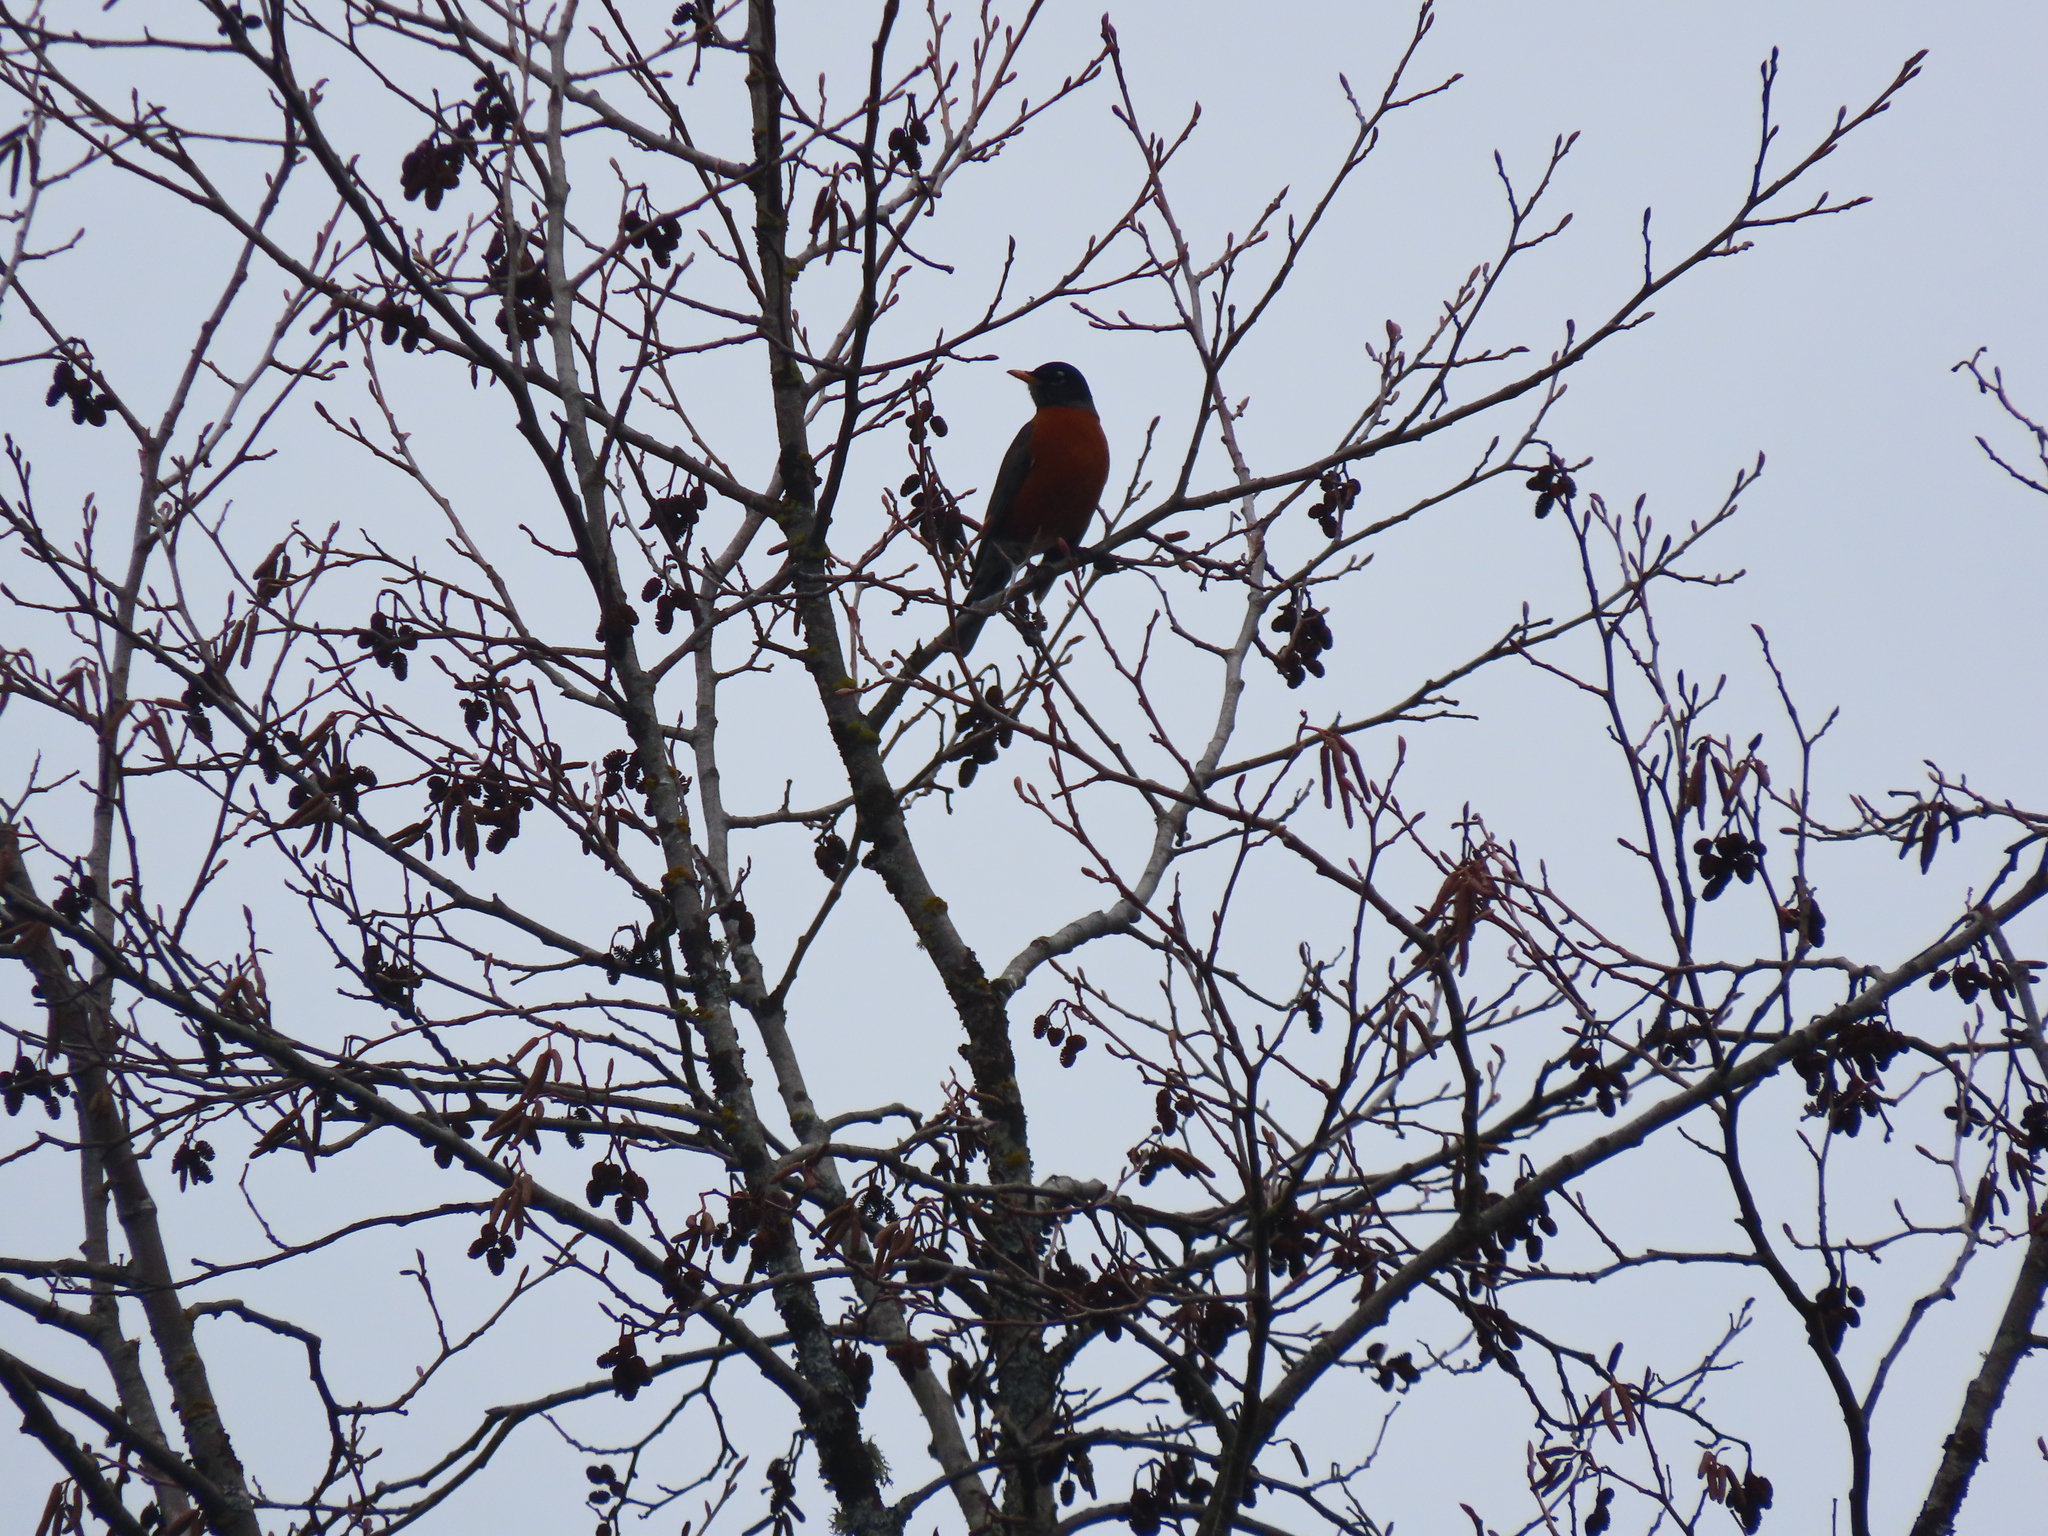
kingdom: Animalia
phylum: Chordata
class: Aves
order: Passeriformes
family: Turdidae
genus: Turdus
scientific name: Turdus migratorius
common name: American robin
